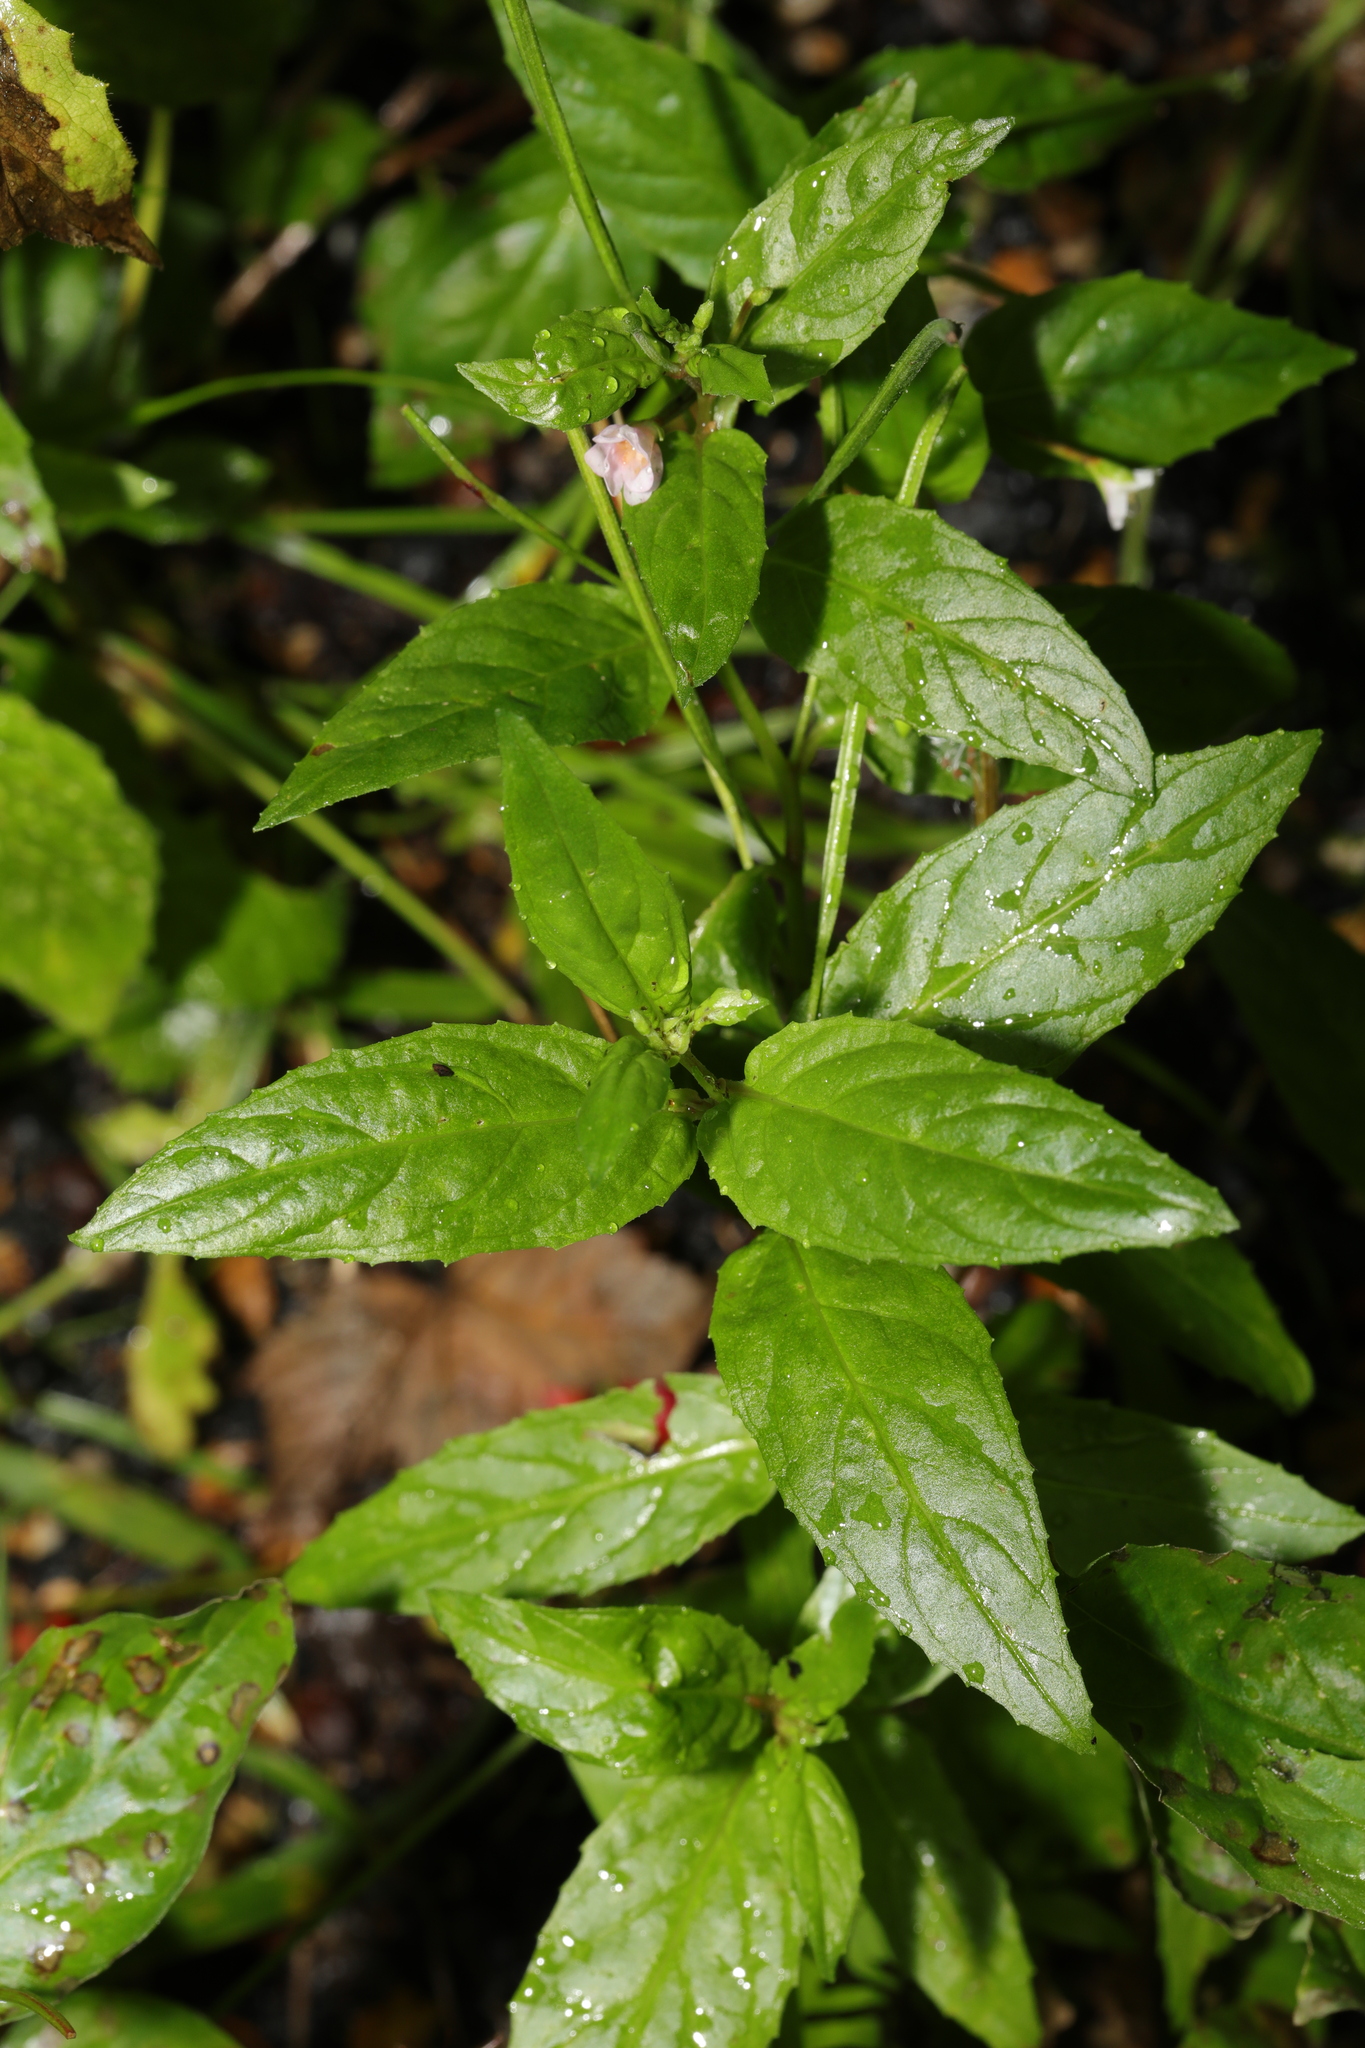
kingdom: Plantae
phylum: Tracheophyta
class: Magnoliopsida
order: Myrtales
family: Onagraceae
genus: Epilobium
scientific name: Epilobium montanum
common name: Broad-leaved willowherb
